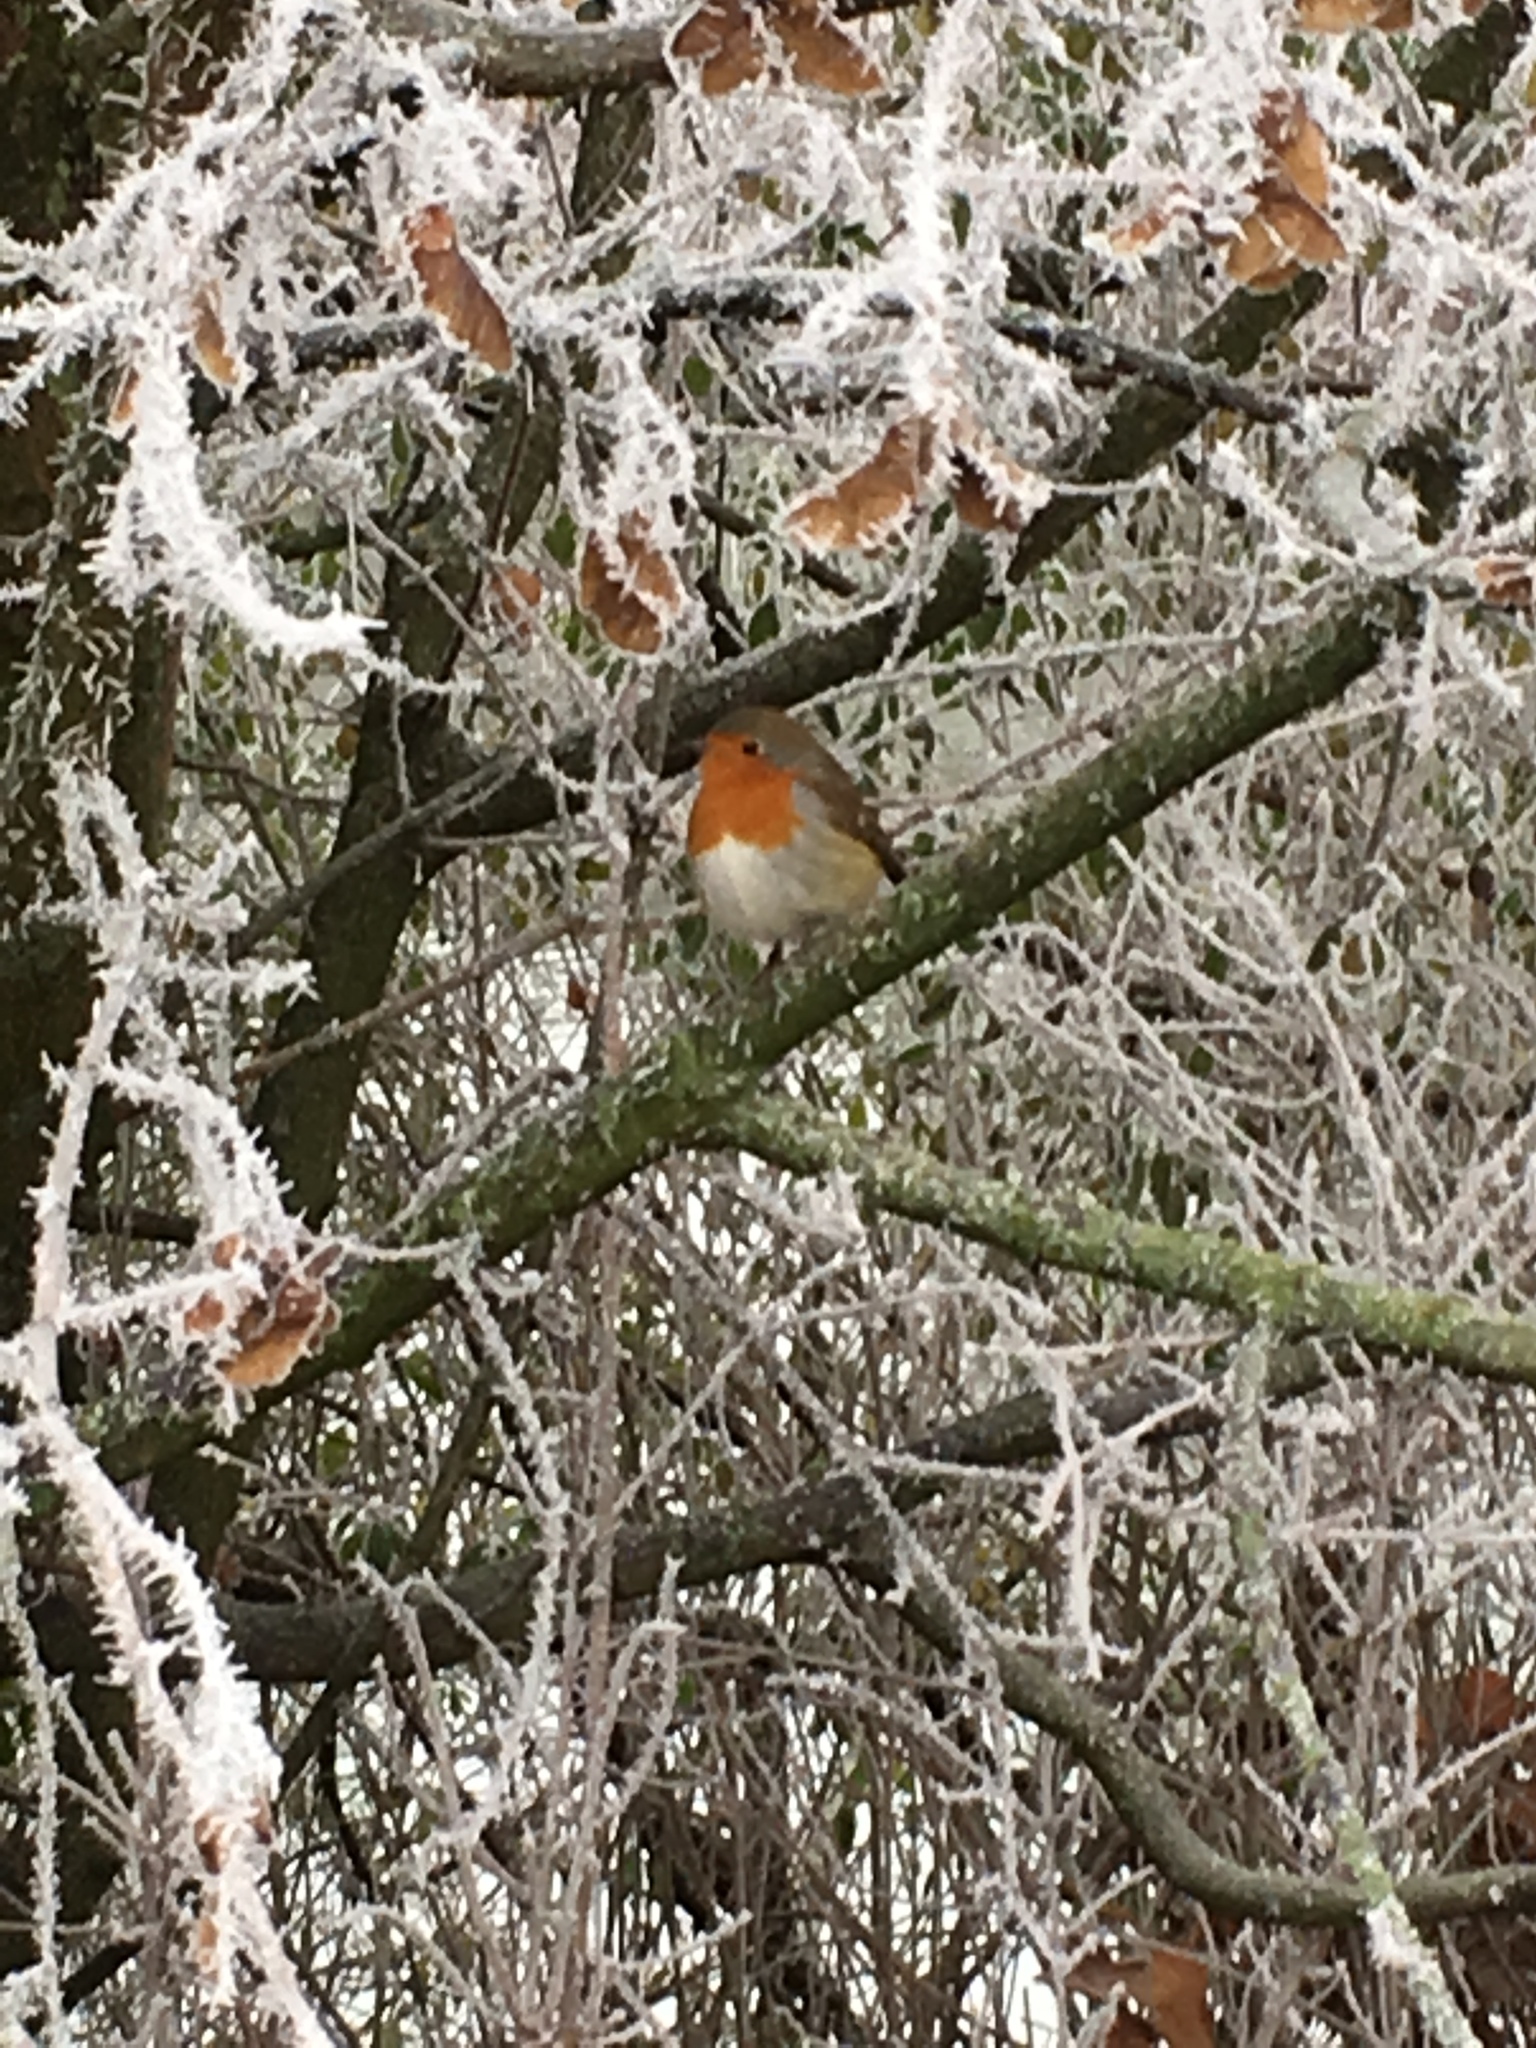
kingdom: Animalia
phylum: Chordata
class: Aves
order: Passeriformes
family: Muscicapidae
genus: Erithacus
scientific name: Erithacus rubecula
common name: European robin
